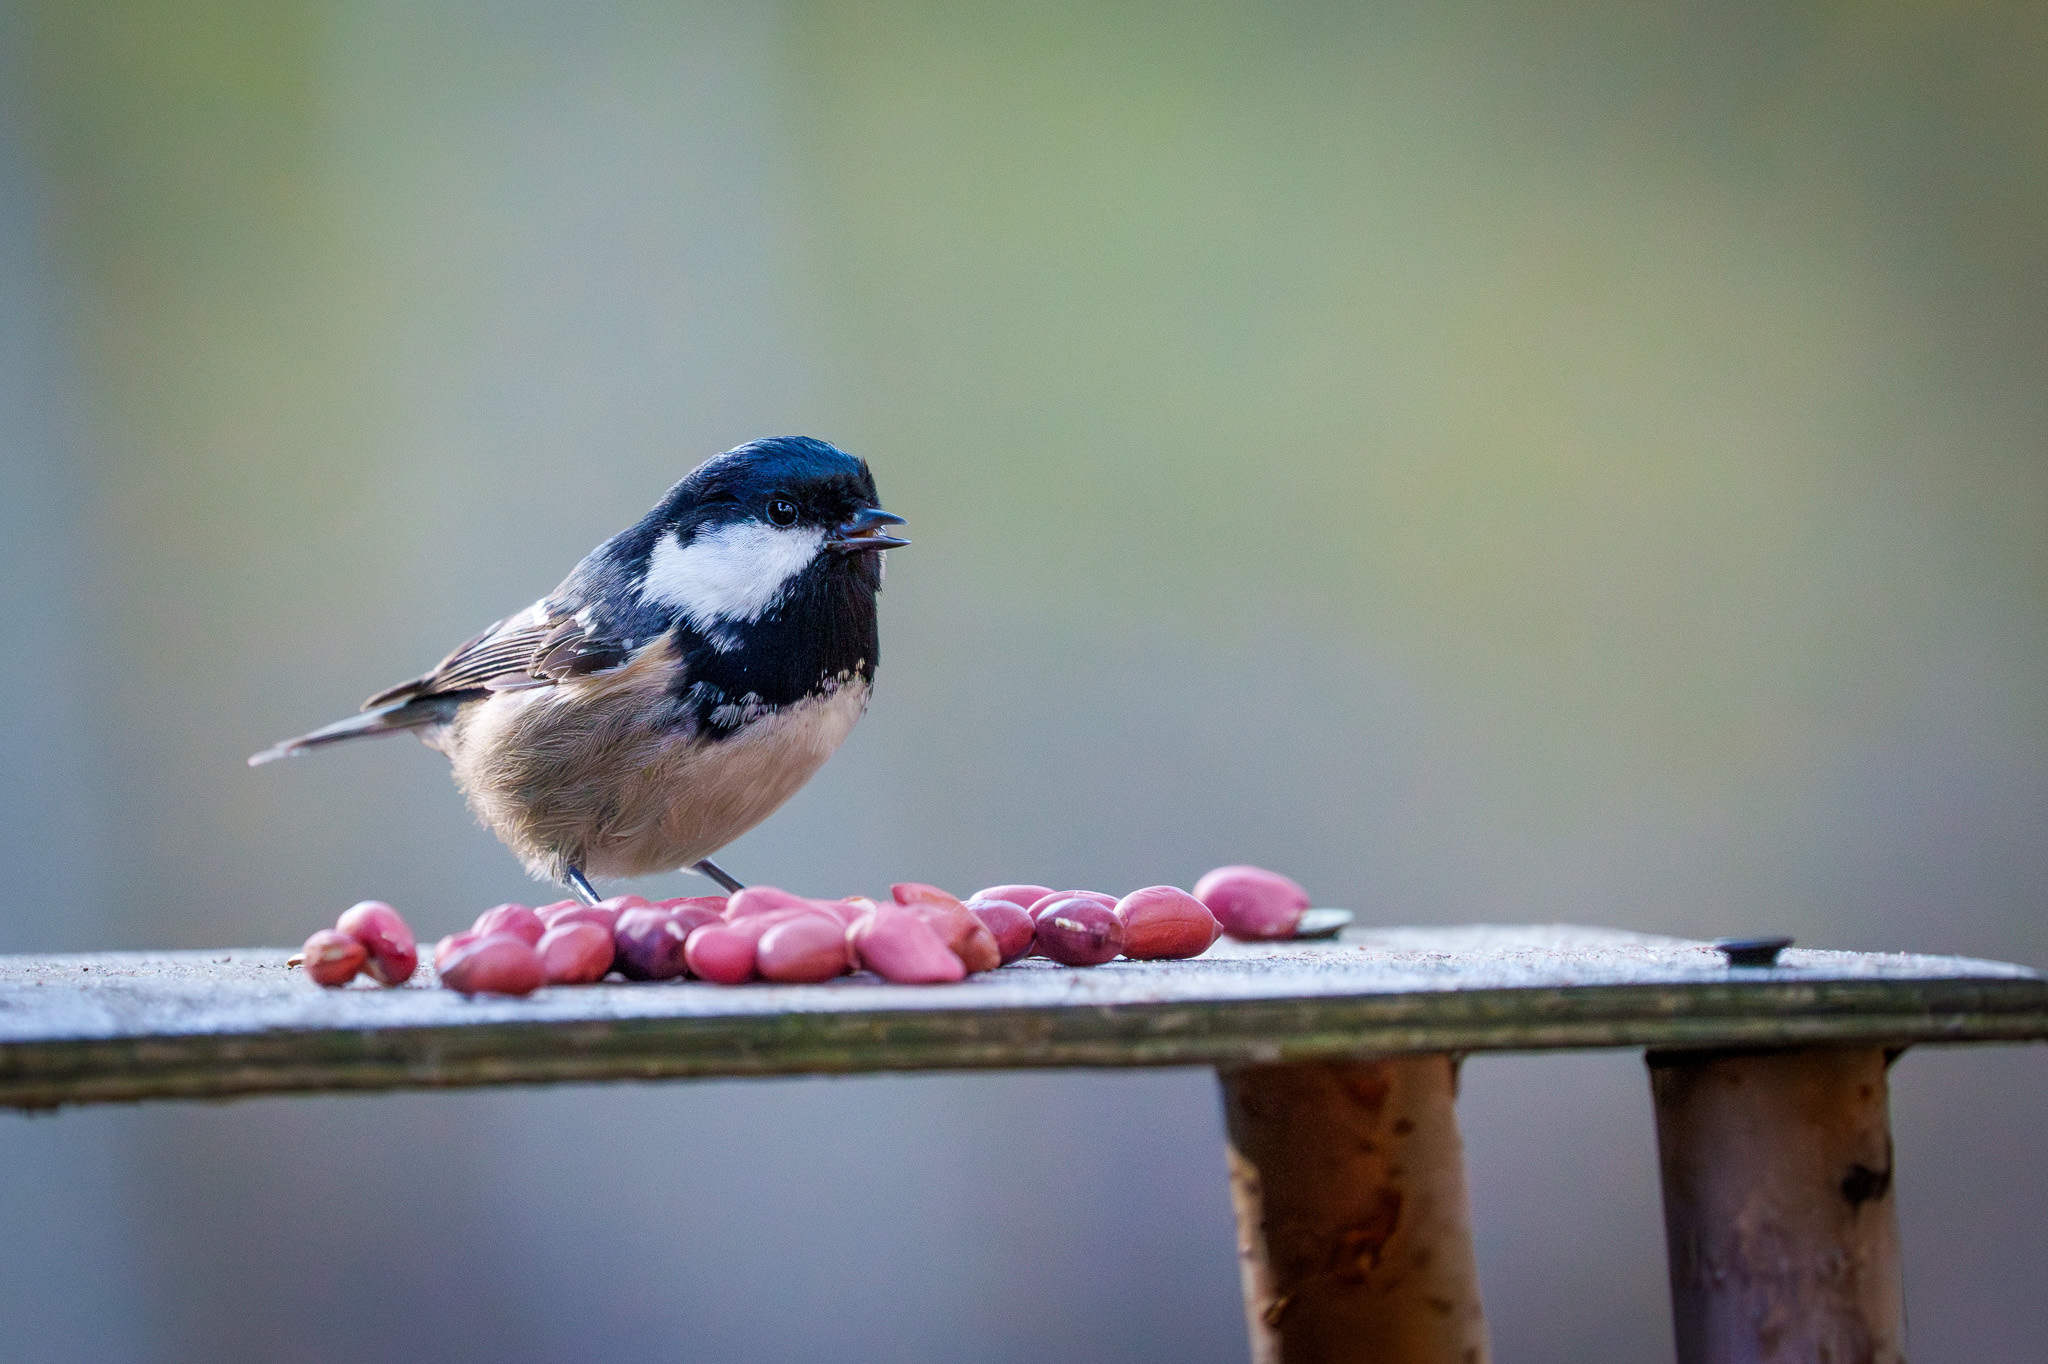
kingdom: Animalia
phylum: Chordata
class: Aves
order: Passeriformes
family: Paridae
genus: Periparus
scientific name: Periparus ater
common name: Coal tit
